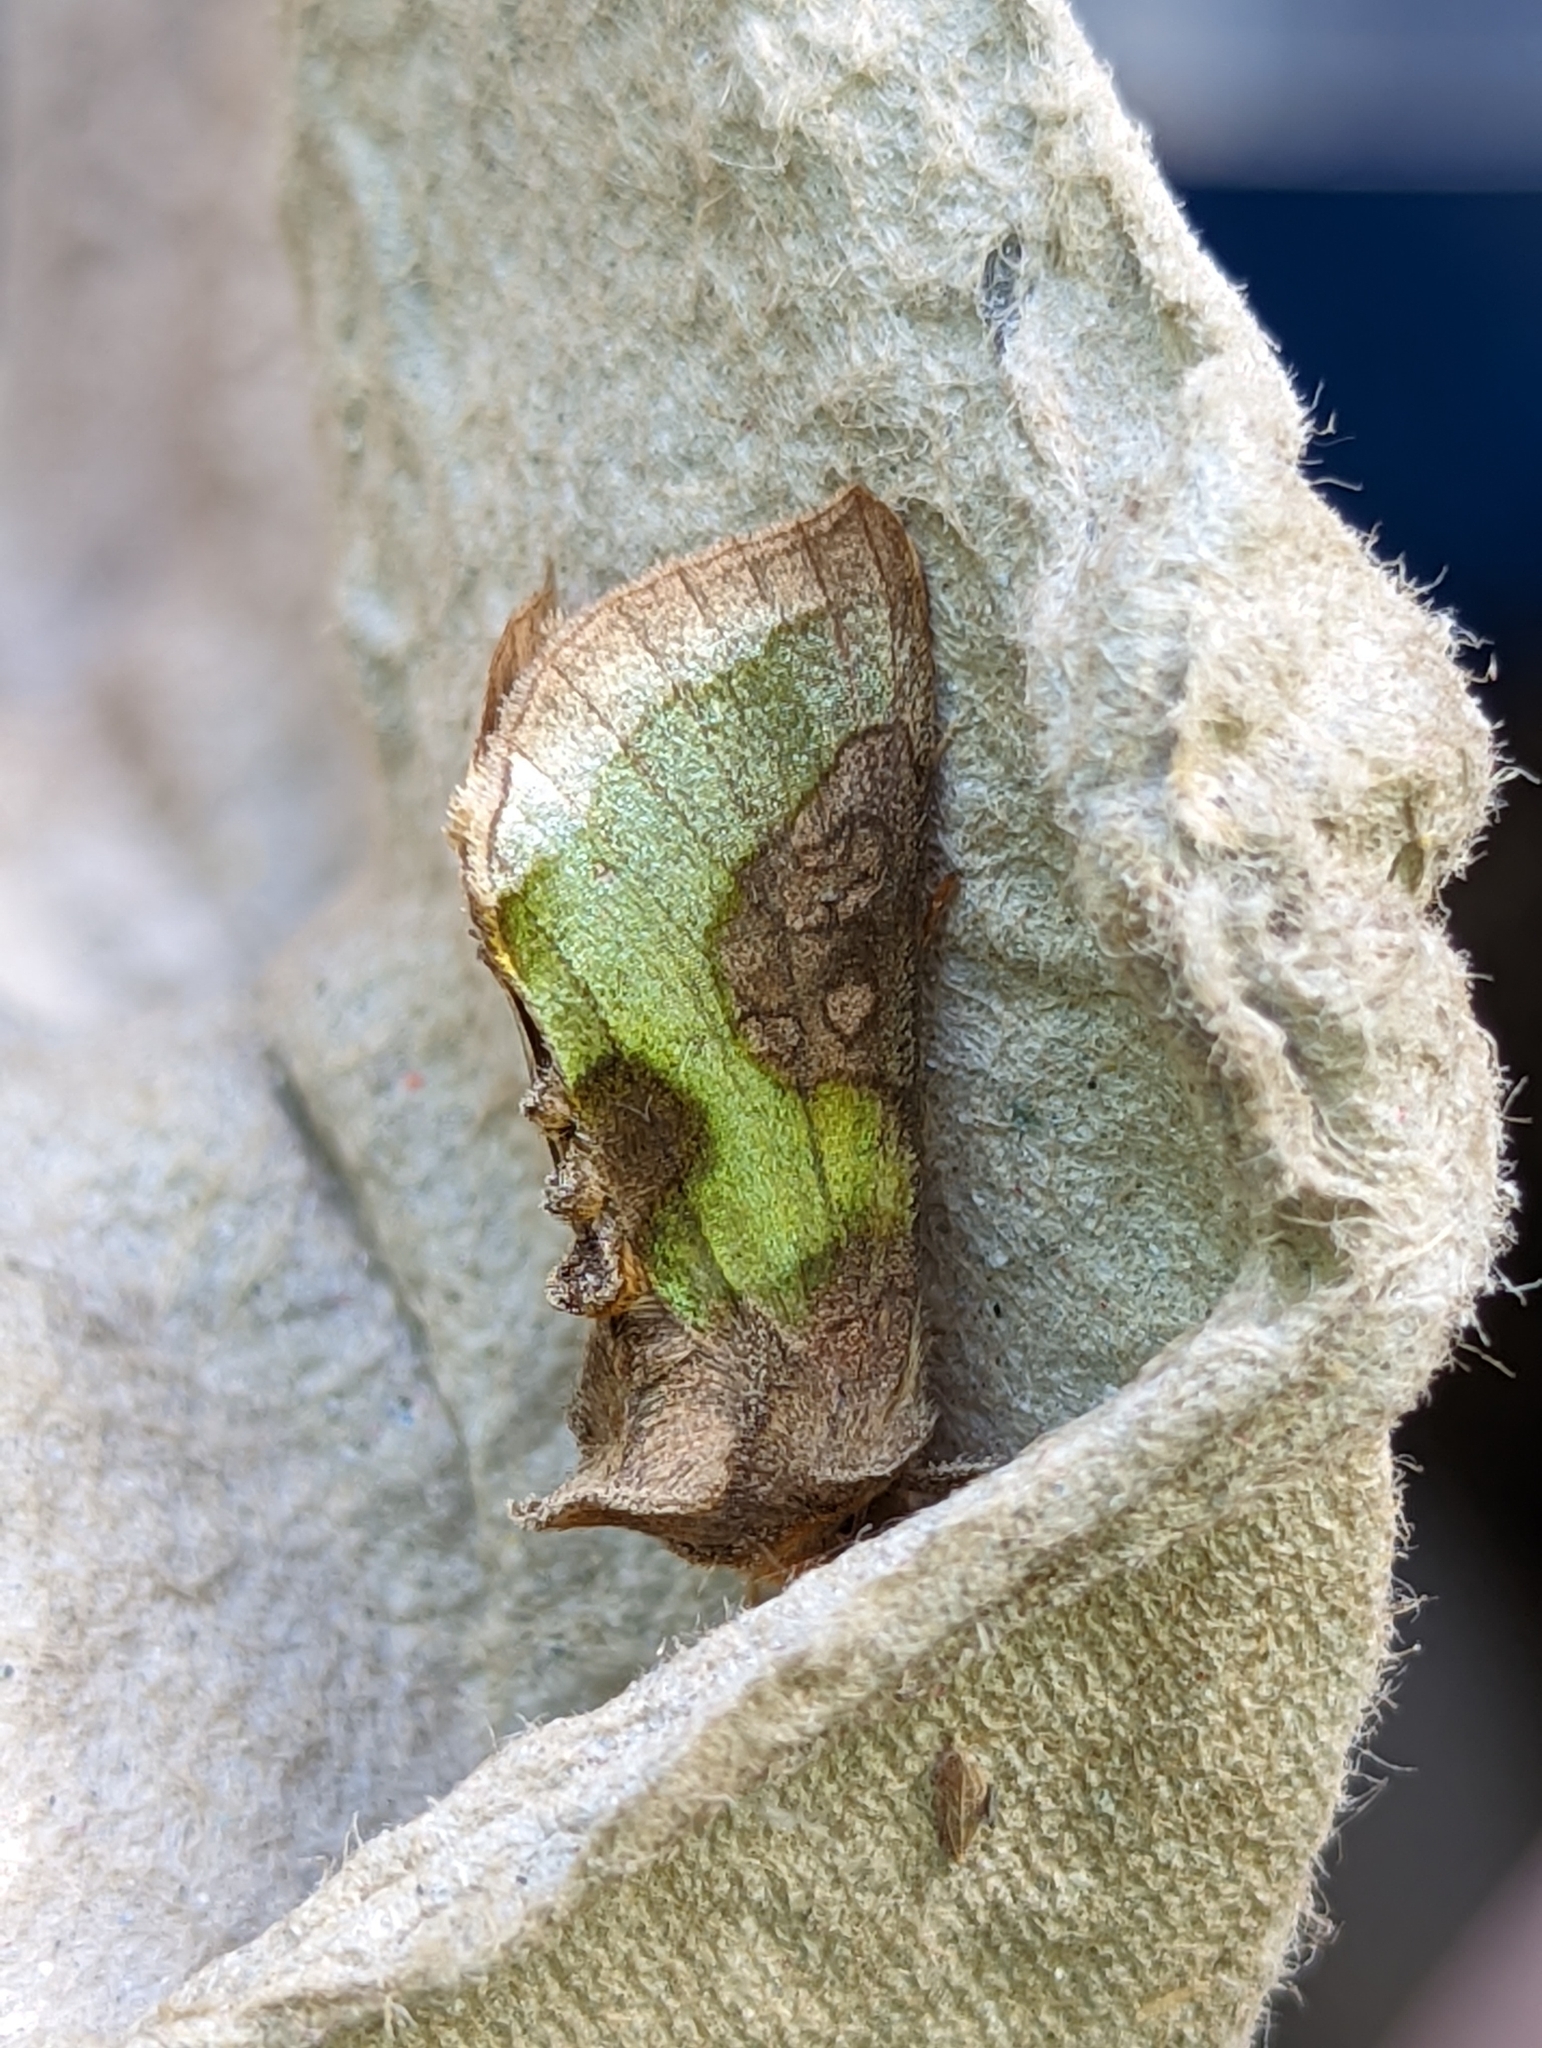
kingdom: Animalia
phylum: Arthropoda
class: Insecta
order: Lepidoptera
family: Noctuidae
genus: Diachrysia
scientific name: Diachrysia chrysitis
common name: Burnished brass
